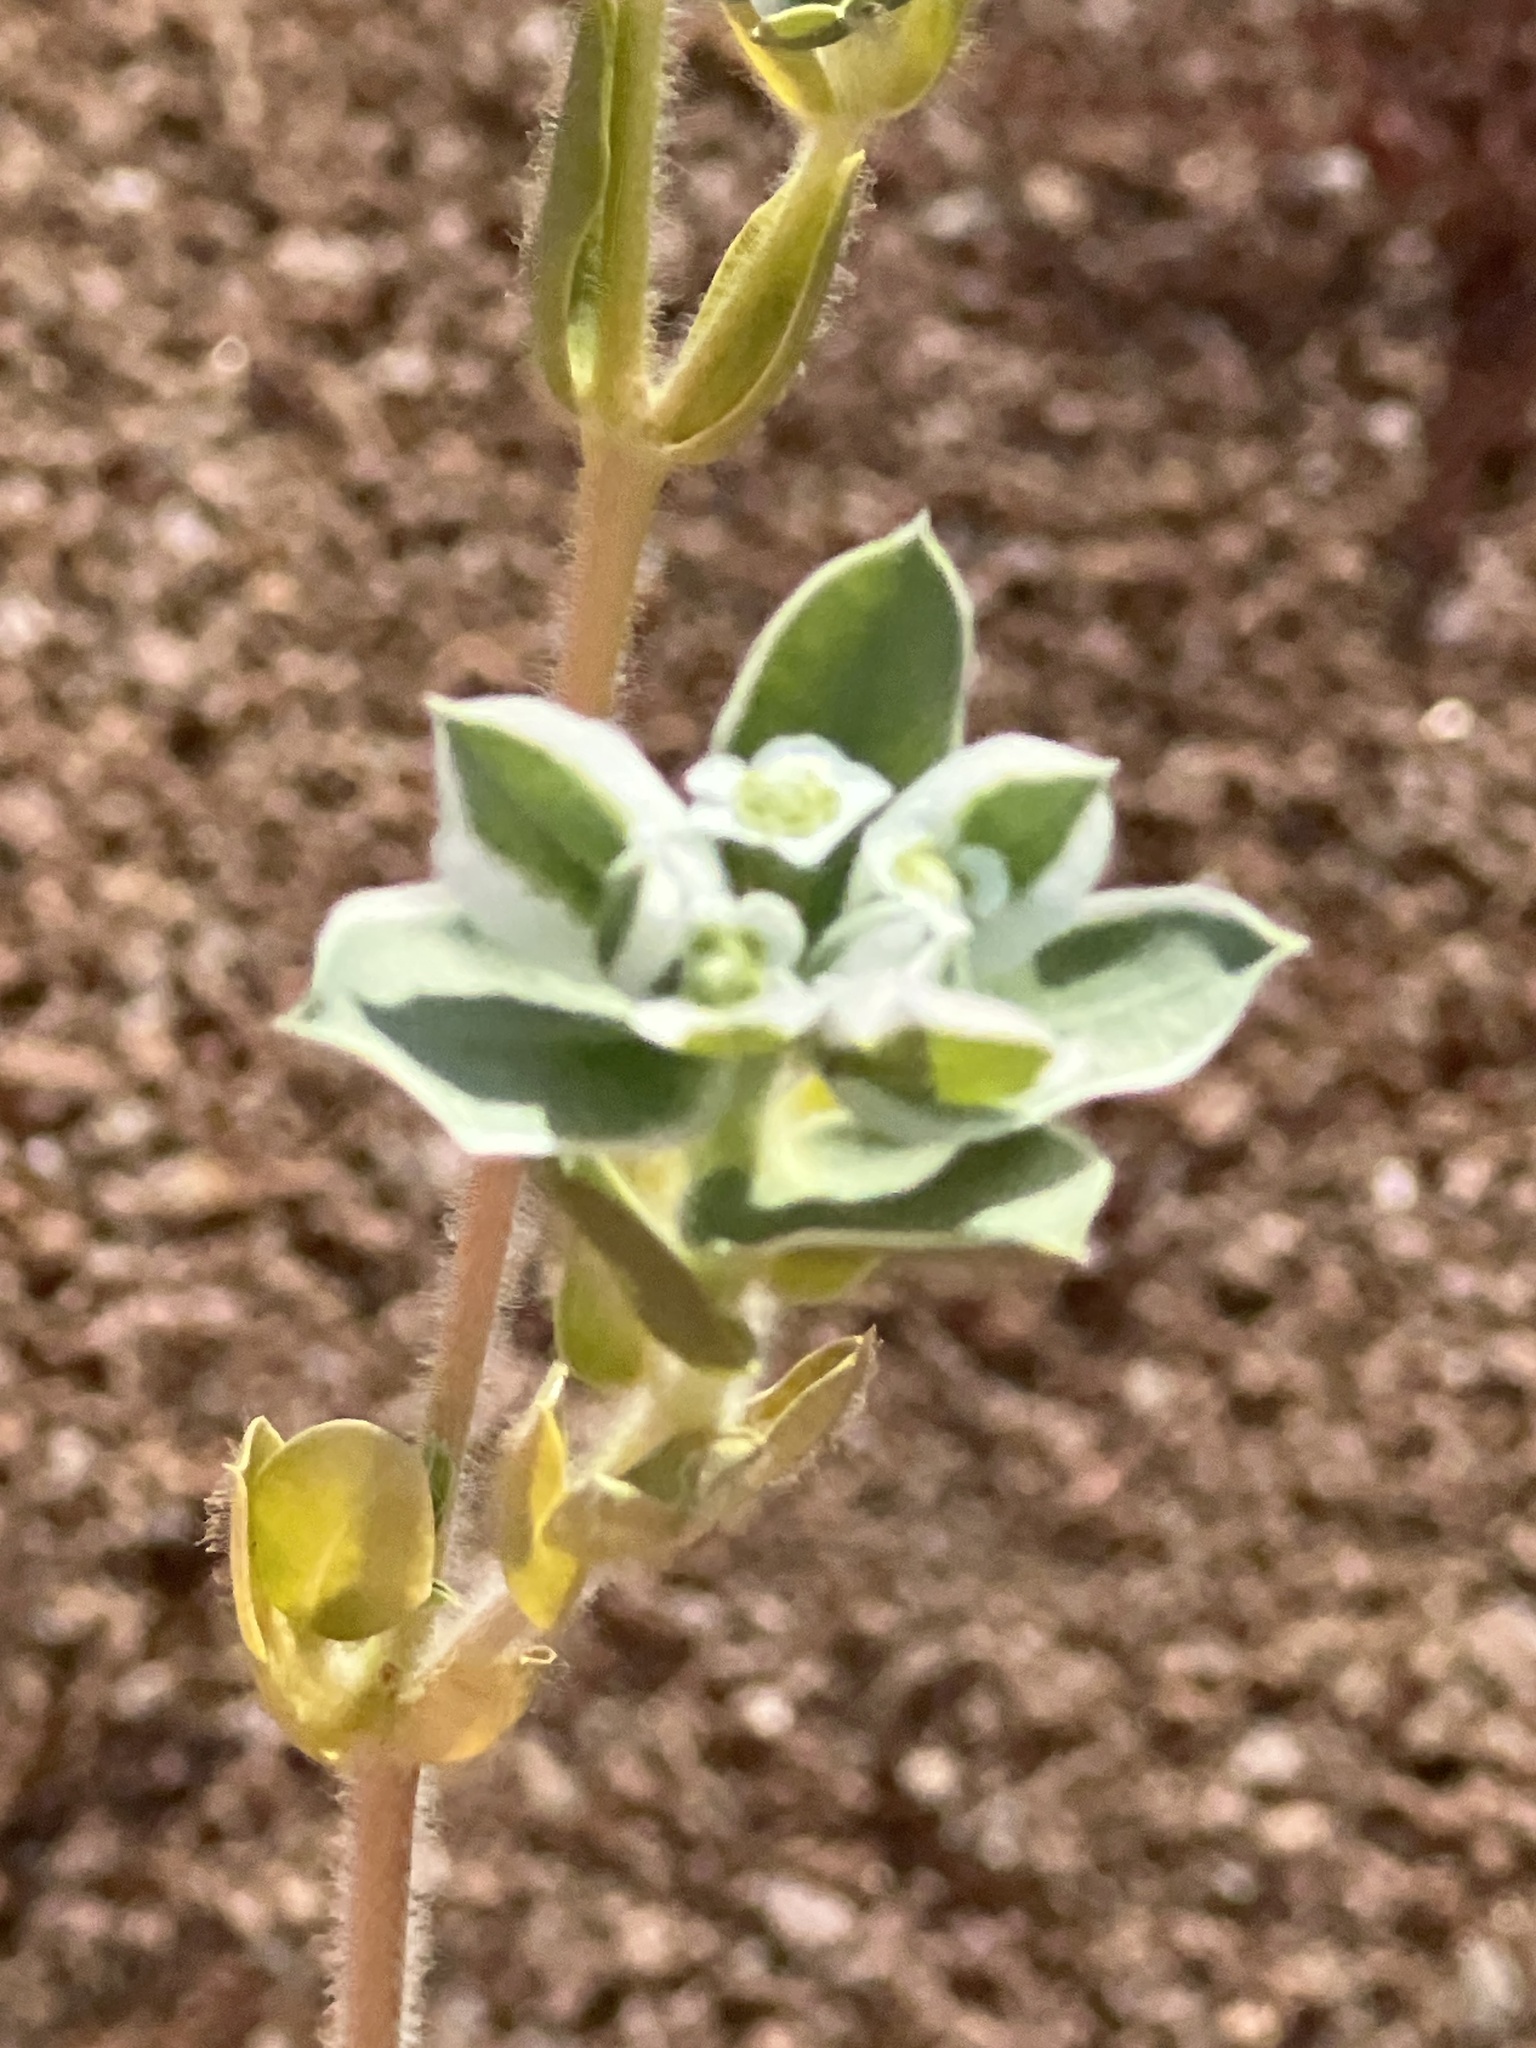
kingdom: Plantae
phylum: Tracheophyta
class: Magnoliopsida
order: Malpighiales
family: Euphorbiaceae
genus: Euphorbia
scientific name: Euphorbia marginata
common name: Ghostweed
